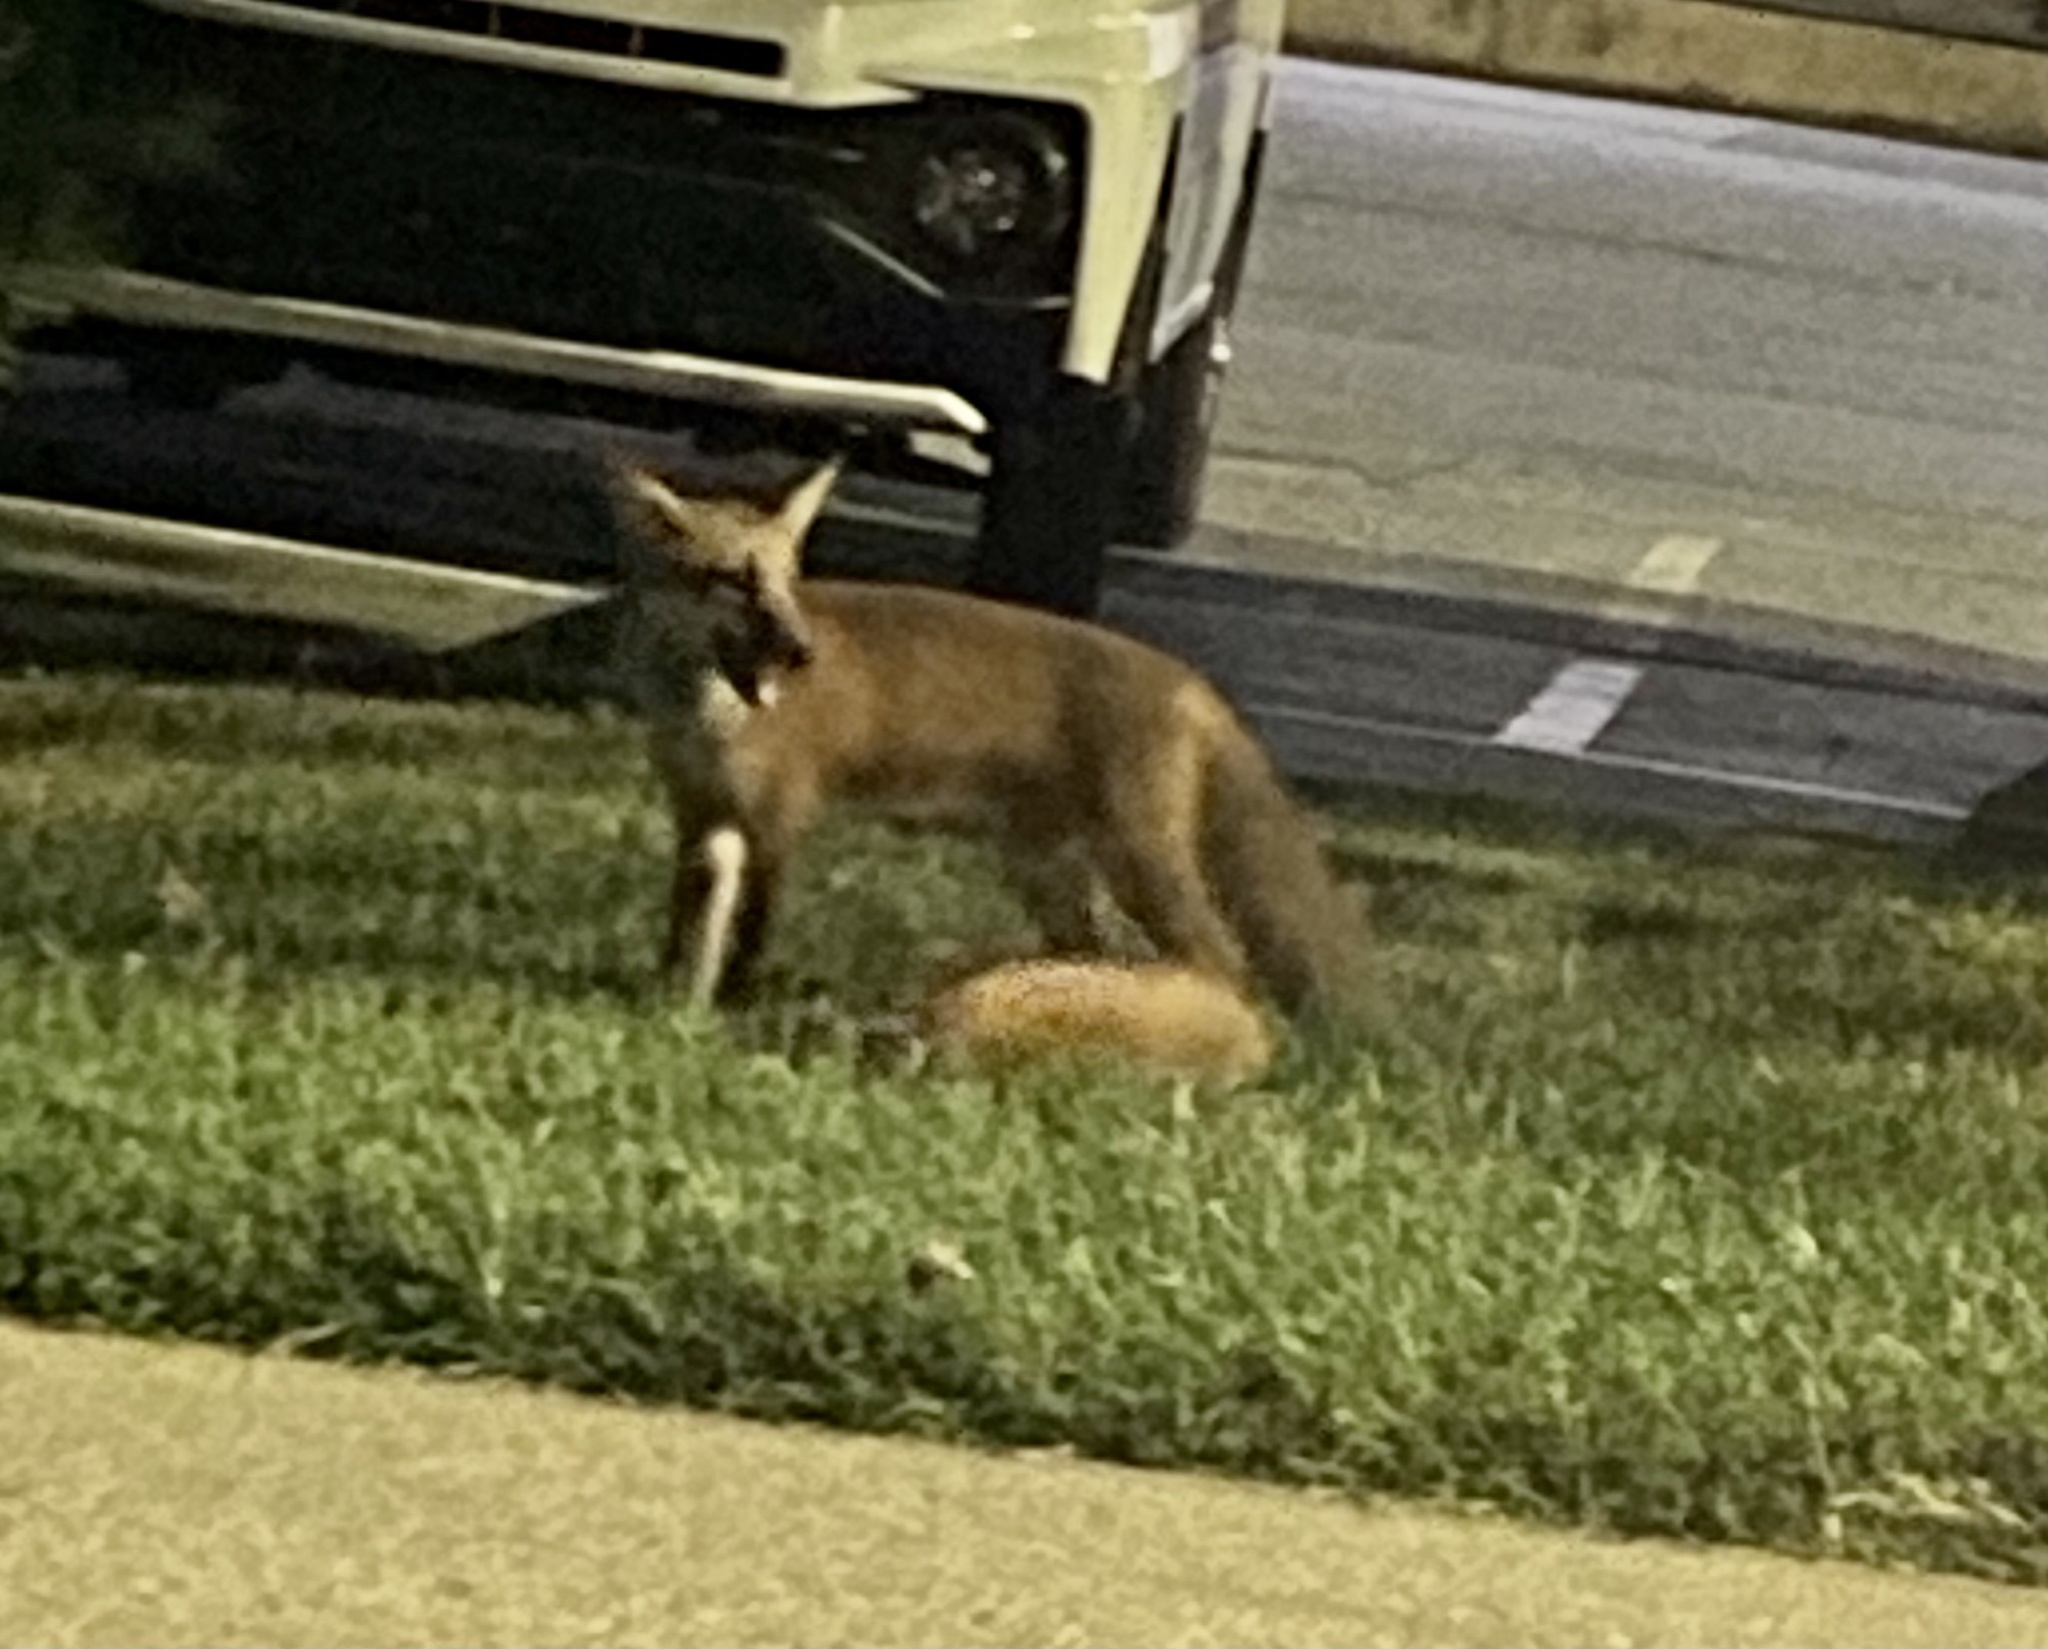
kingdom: Animalia
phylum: Chordata
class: Mammalia
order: Carnivora
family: Canidae
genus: Vulpes
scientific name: Vulpes vulpes
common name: Red fox
